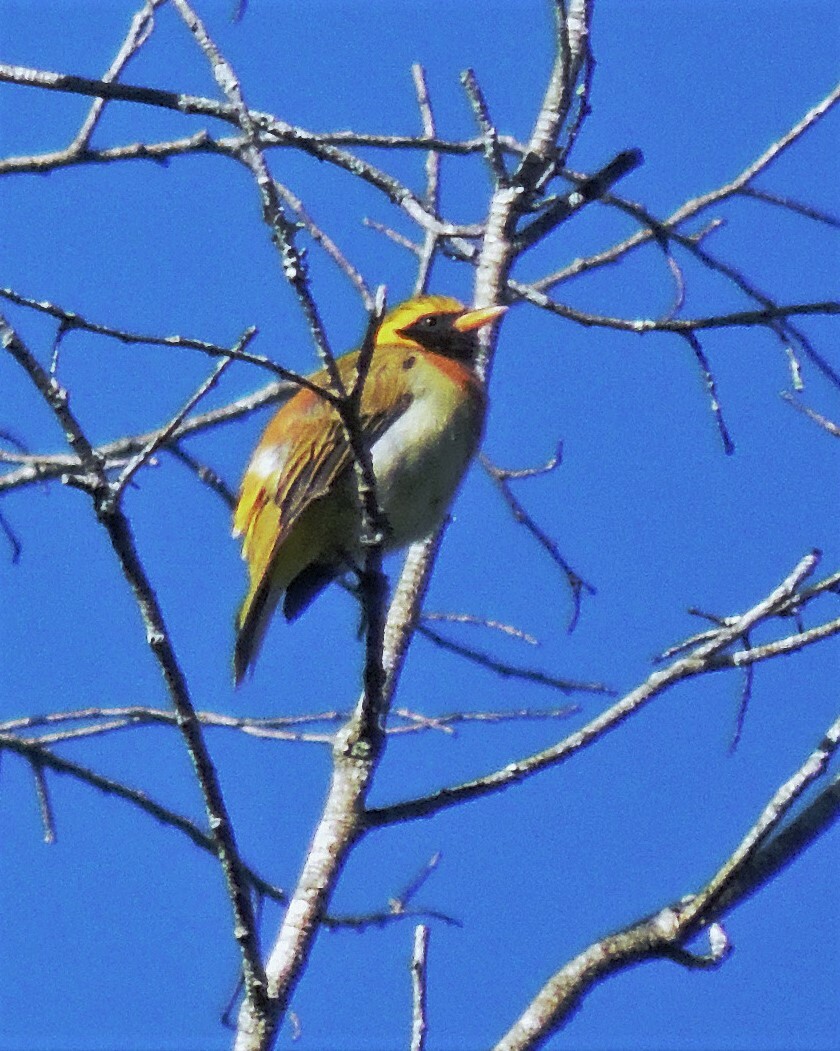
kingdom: Animalia
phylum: Chordata
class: Aves
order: Passeriformes
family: Thraupidae
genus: Hemithraupis
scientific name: Hemithraupis guira
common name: Guira tanager
